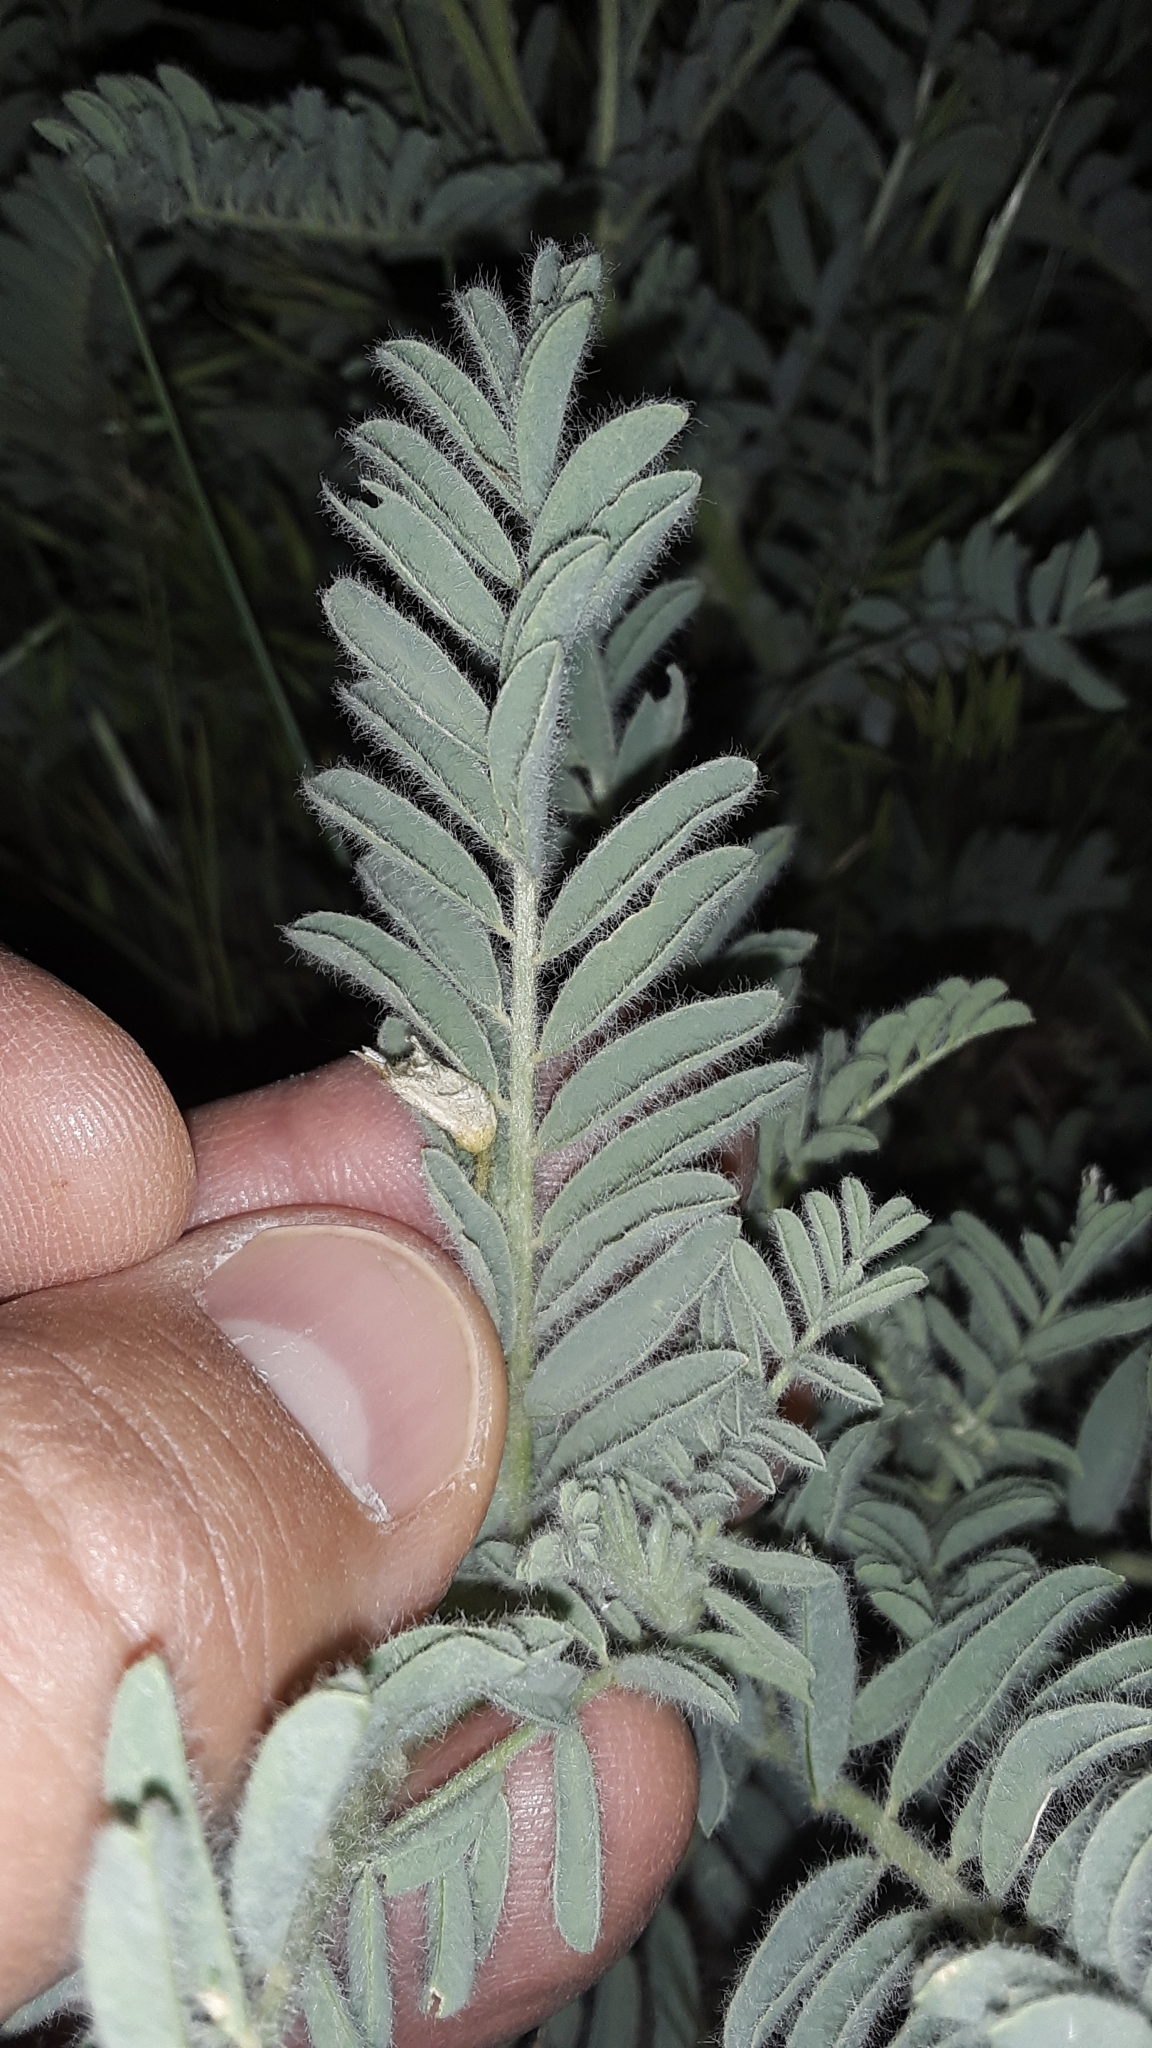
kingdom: Plantae
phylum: Tracheophyta
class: Magnoliopsida
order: Fabales
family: Fabaceae
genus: Astragalus
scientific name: Astragalus drummondii
